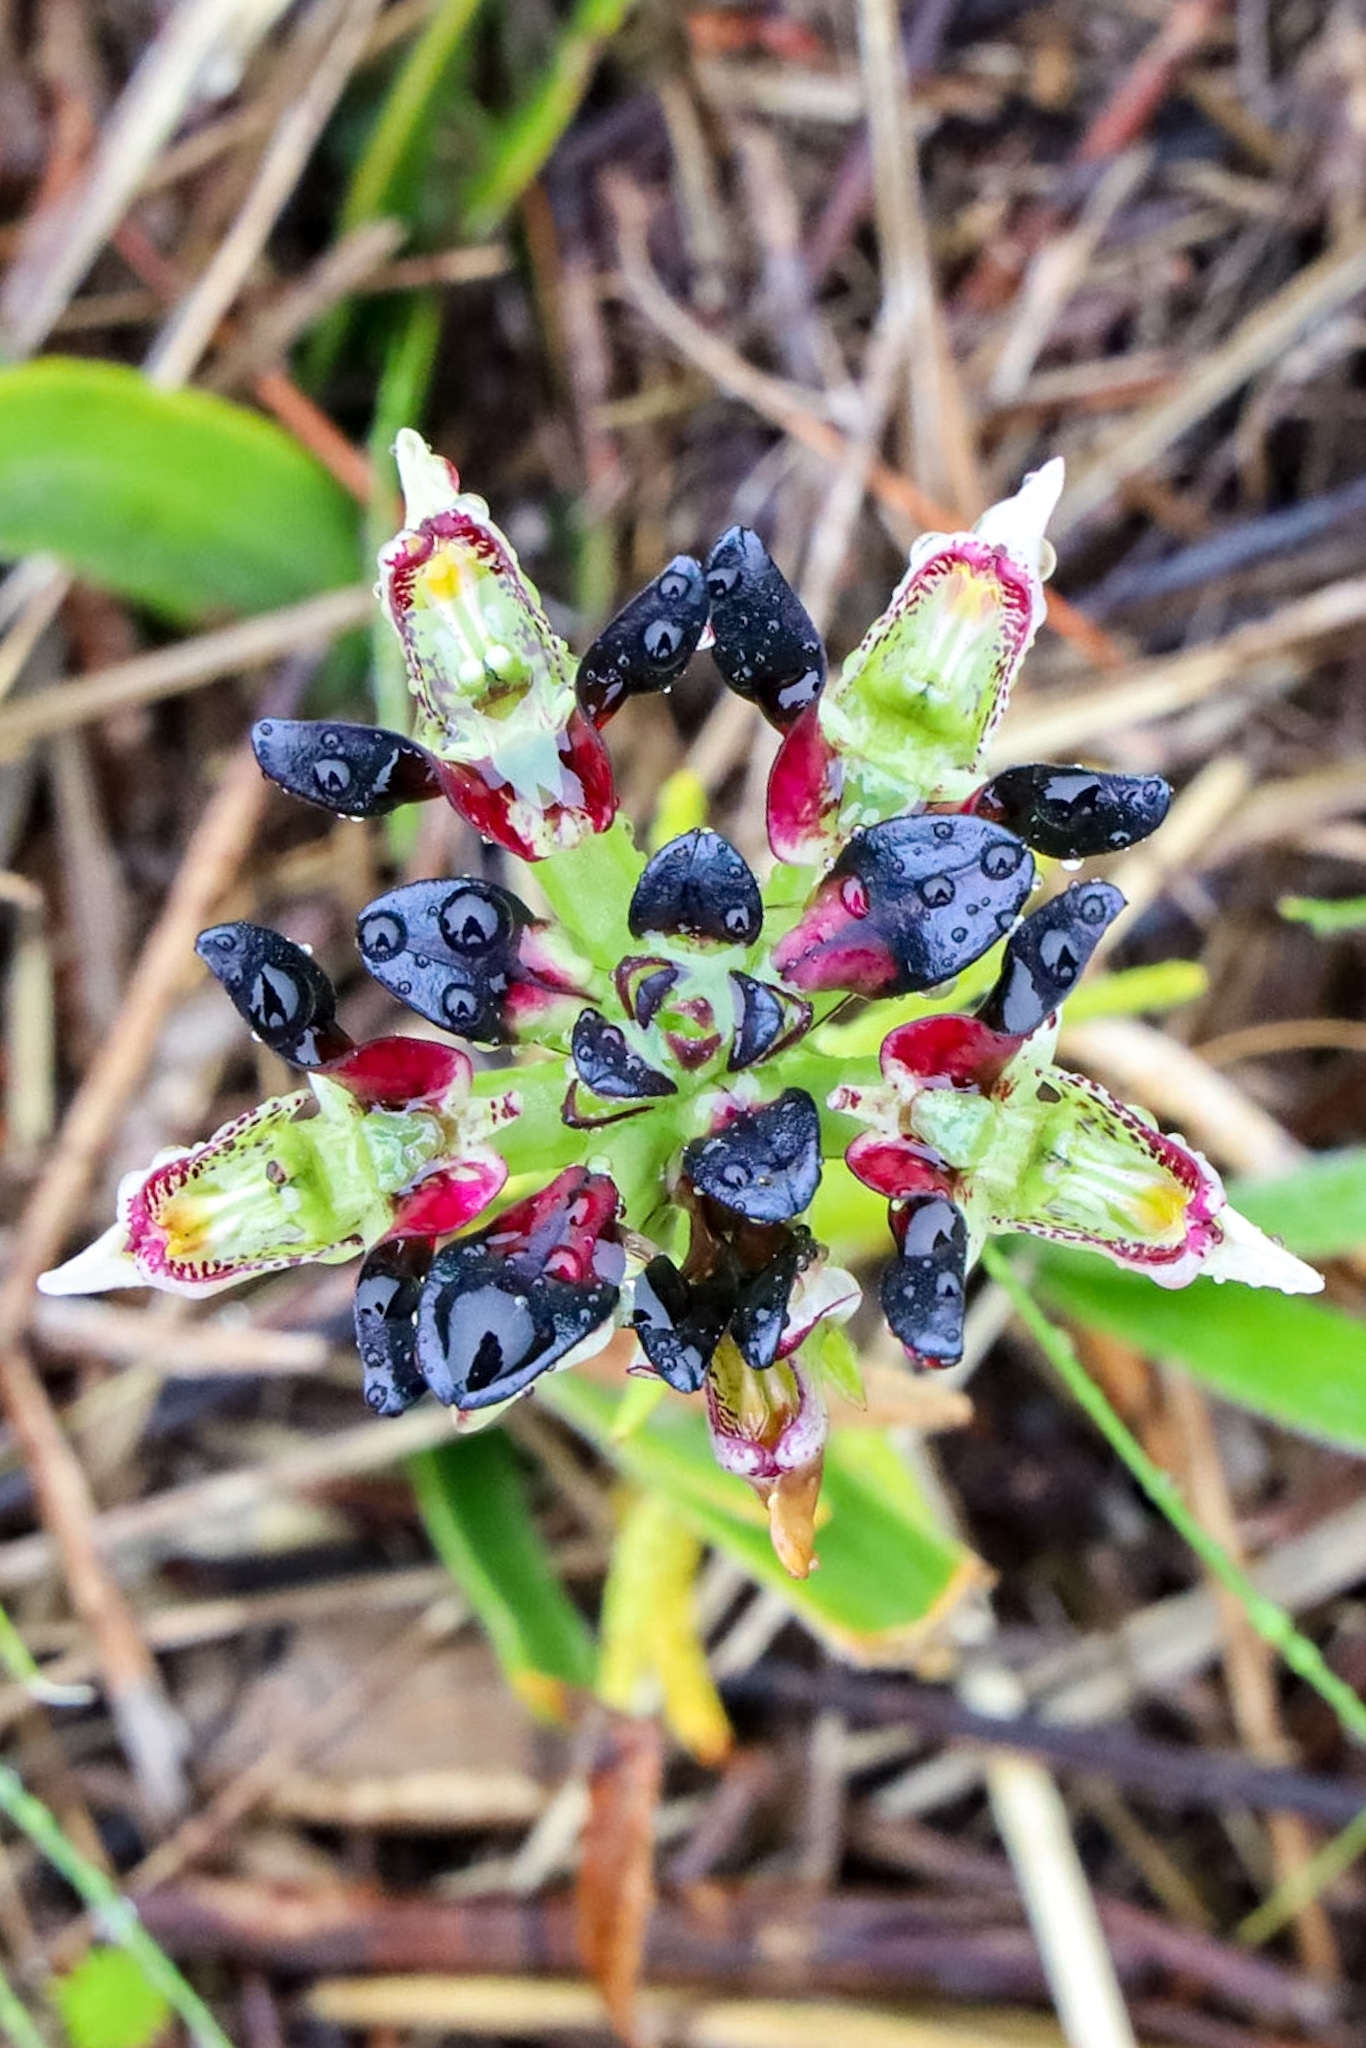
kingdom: Plantae
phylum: Tracheophyta
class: Liliopsida
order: Asparagales
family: Orchidaceae
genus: Disa
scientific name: Disa atricapilla
